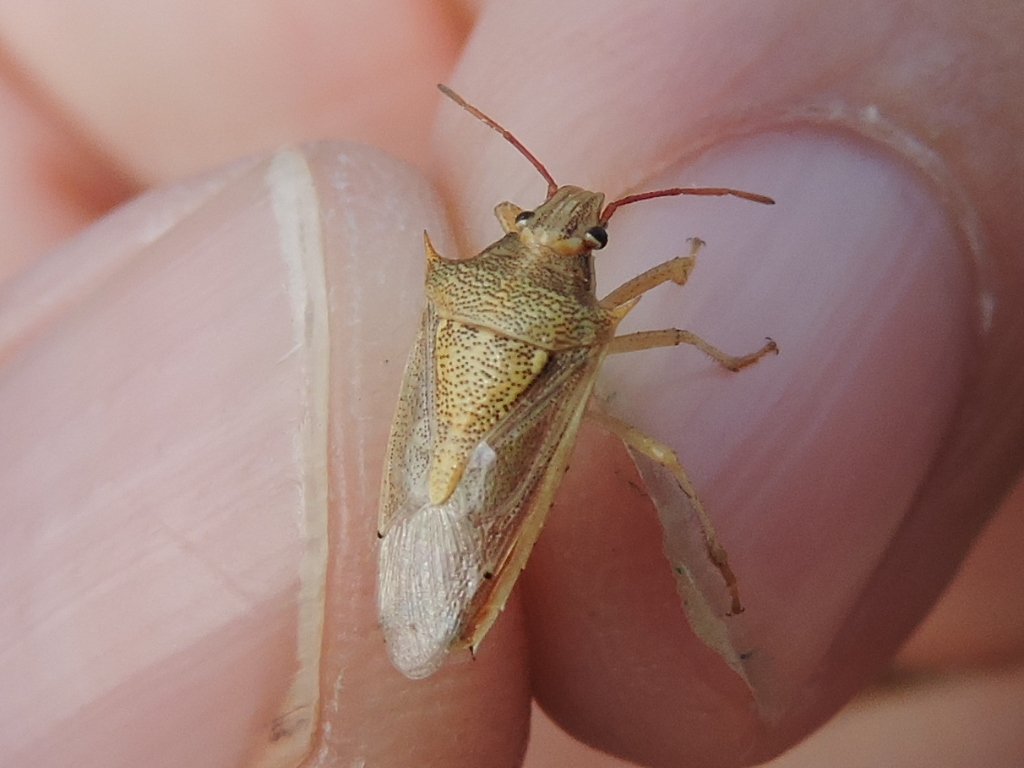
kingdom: Animalia
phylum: Arthropoda
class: Insecta
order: Hemiptera
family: Pentatomidae
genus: Oebalus
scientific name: Oebalus pugnax
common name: Rice stink bug
